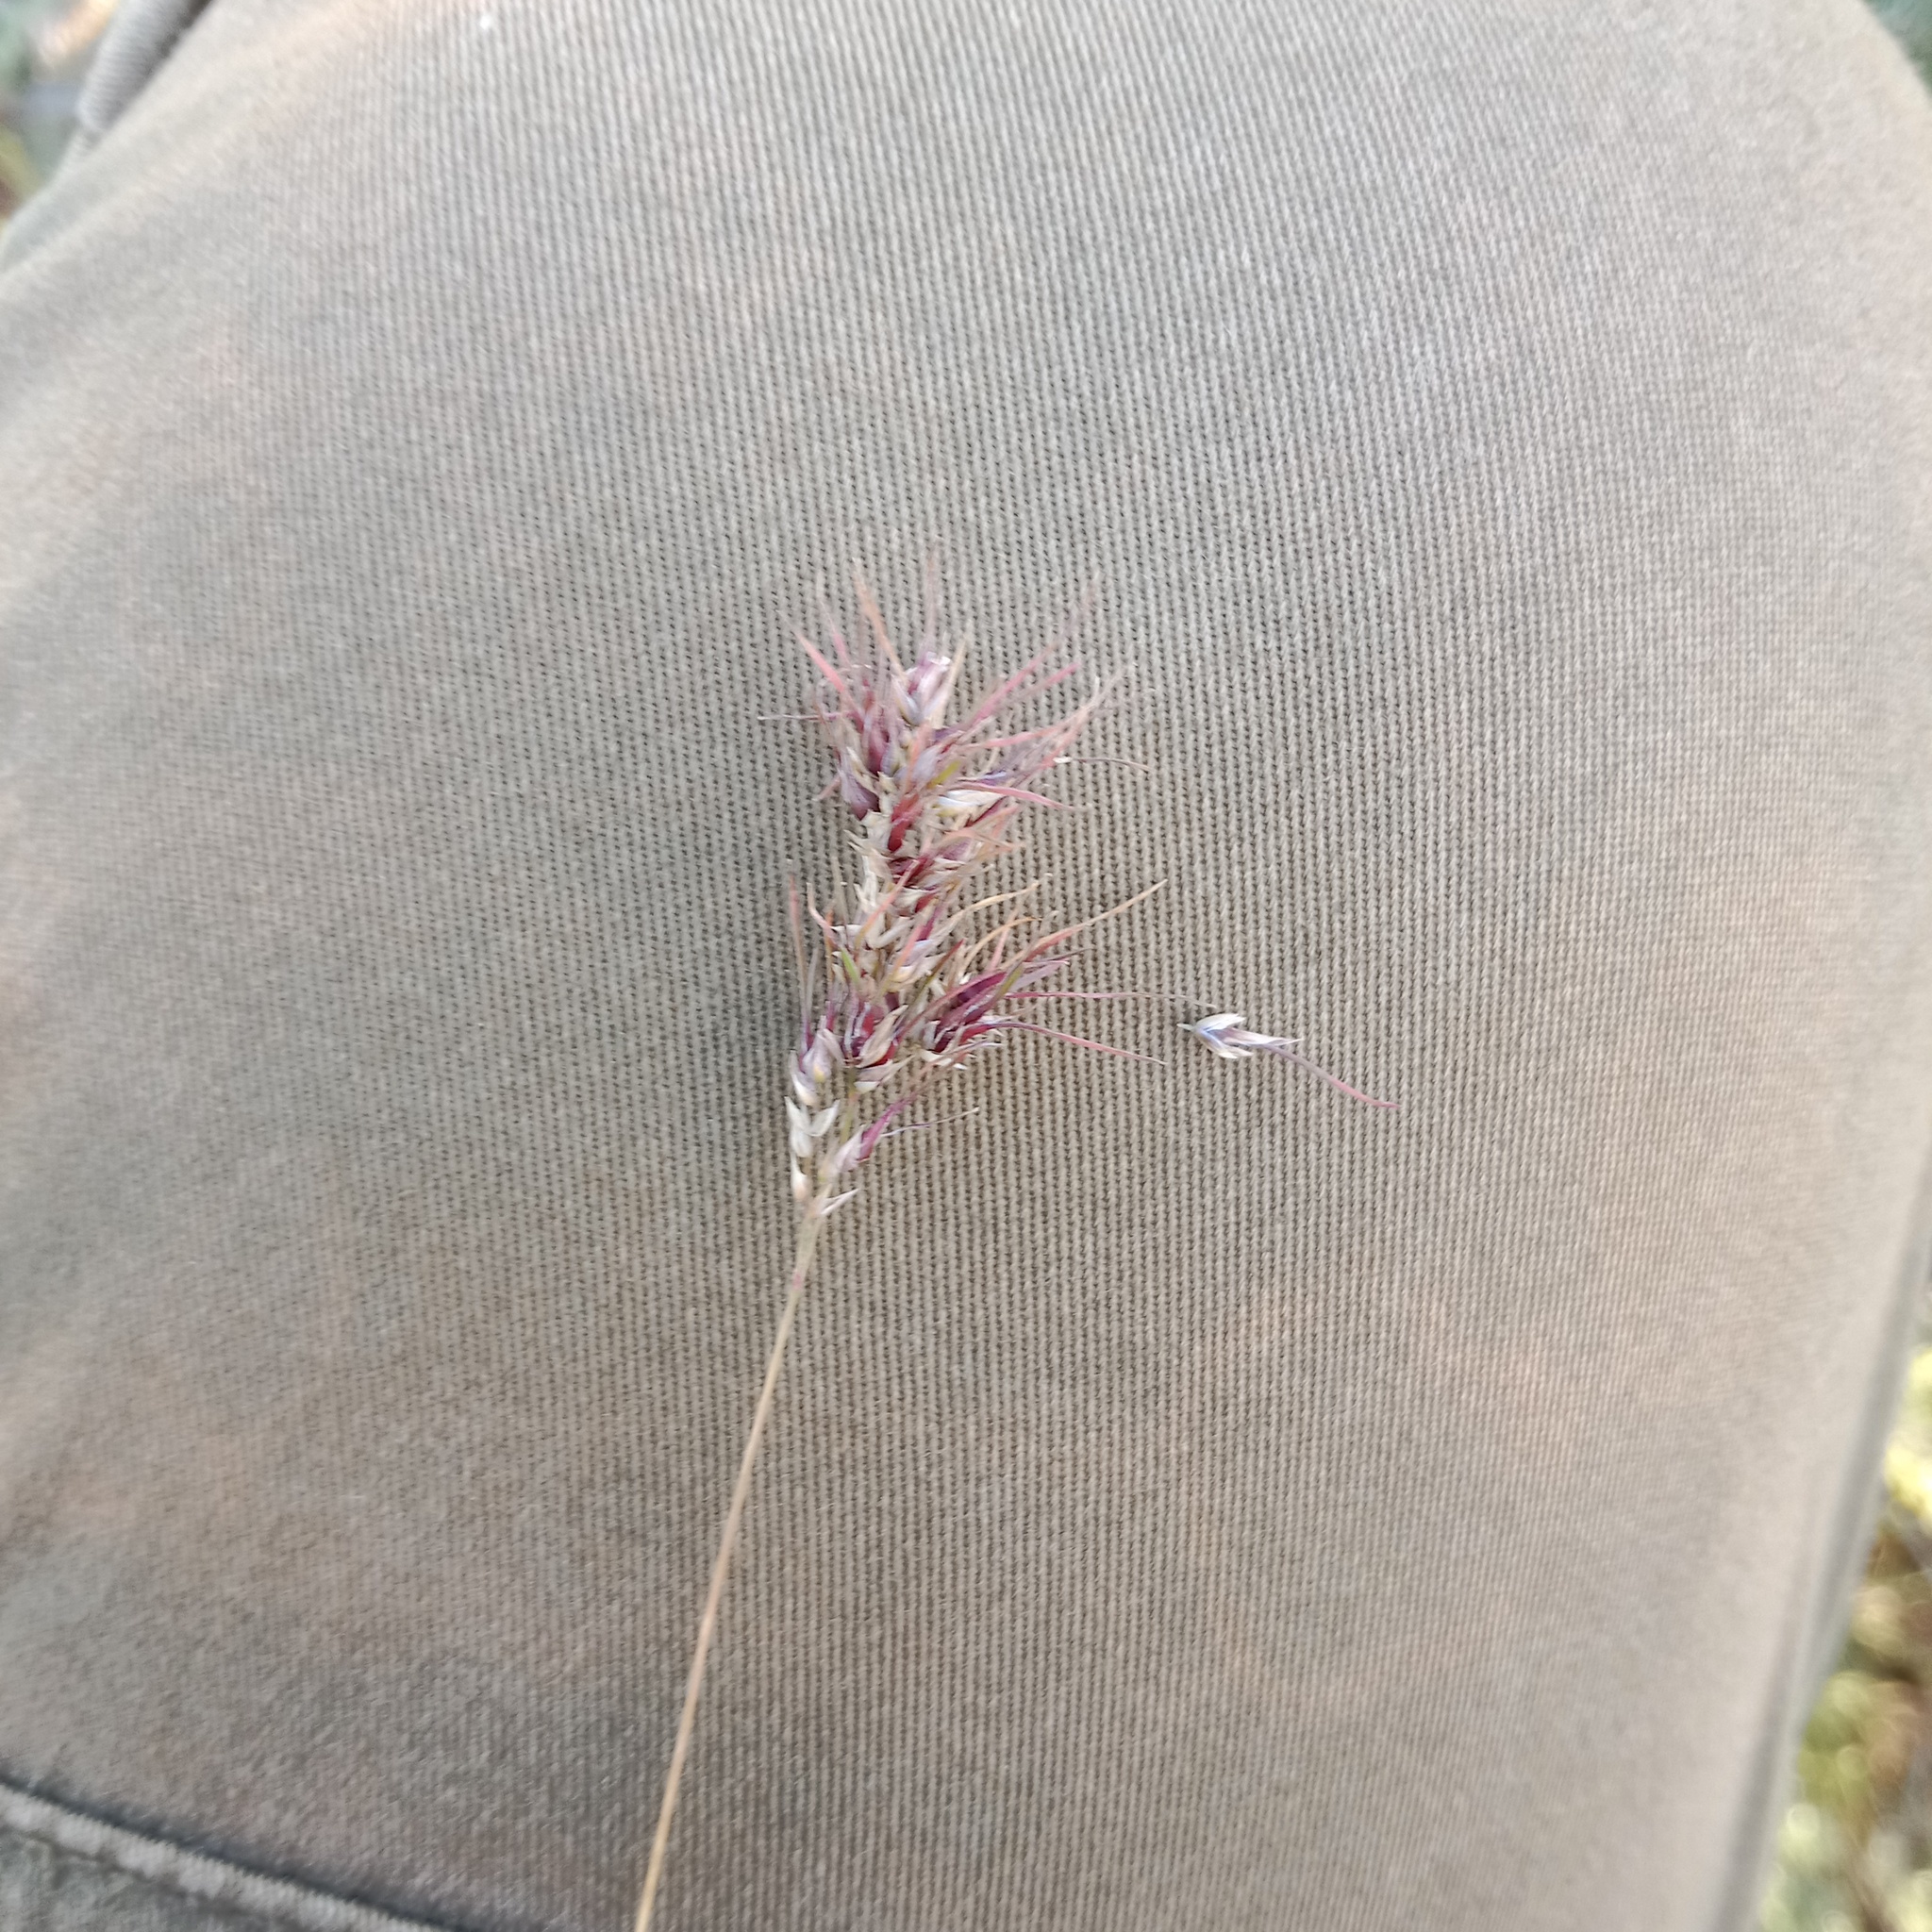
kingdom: Plantae
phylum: Tracheophyta
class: Liliopsida
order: Poales
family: Poaceae
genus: Poa
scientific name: Poa bulbosa
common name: Bulbous bluegrass
